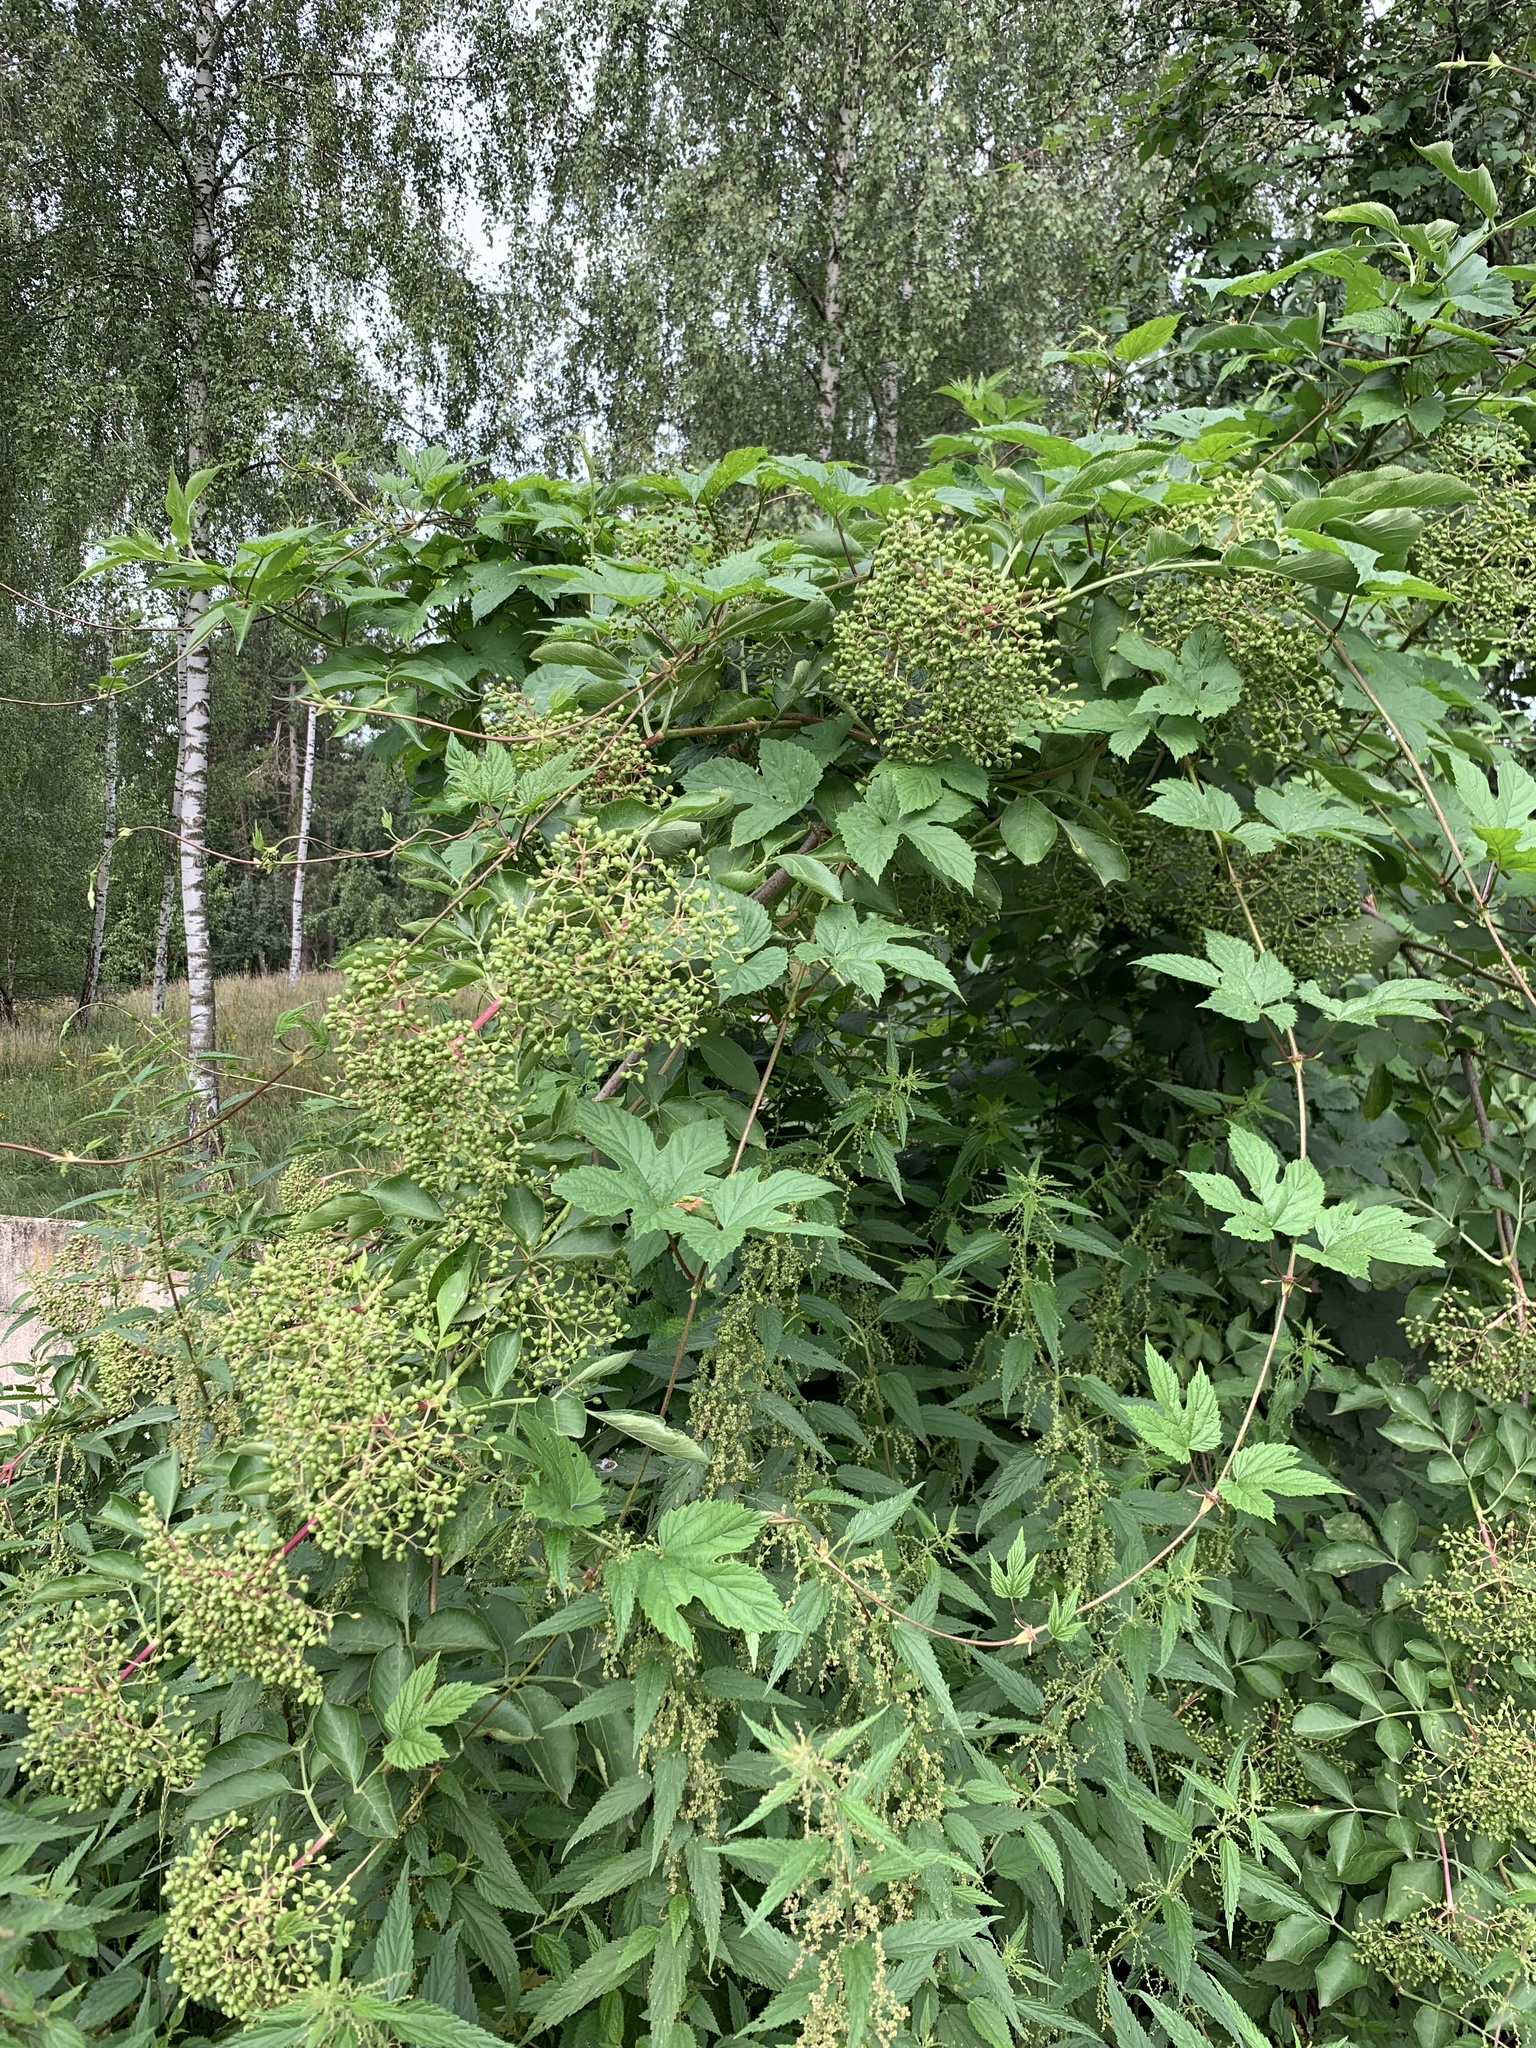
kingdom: Plantae
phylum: Tracheophyta
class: Magnoliopsida
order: Dipsacales
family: Viburnaceae
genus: Sambucus
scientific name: Sambucus nigra
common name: Elder
